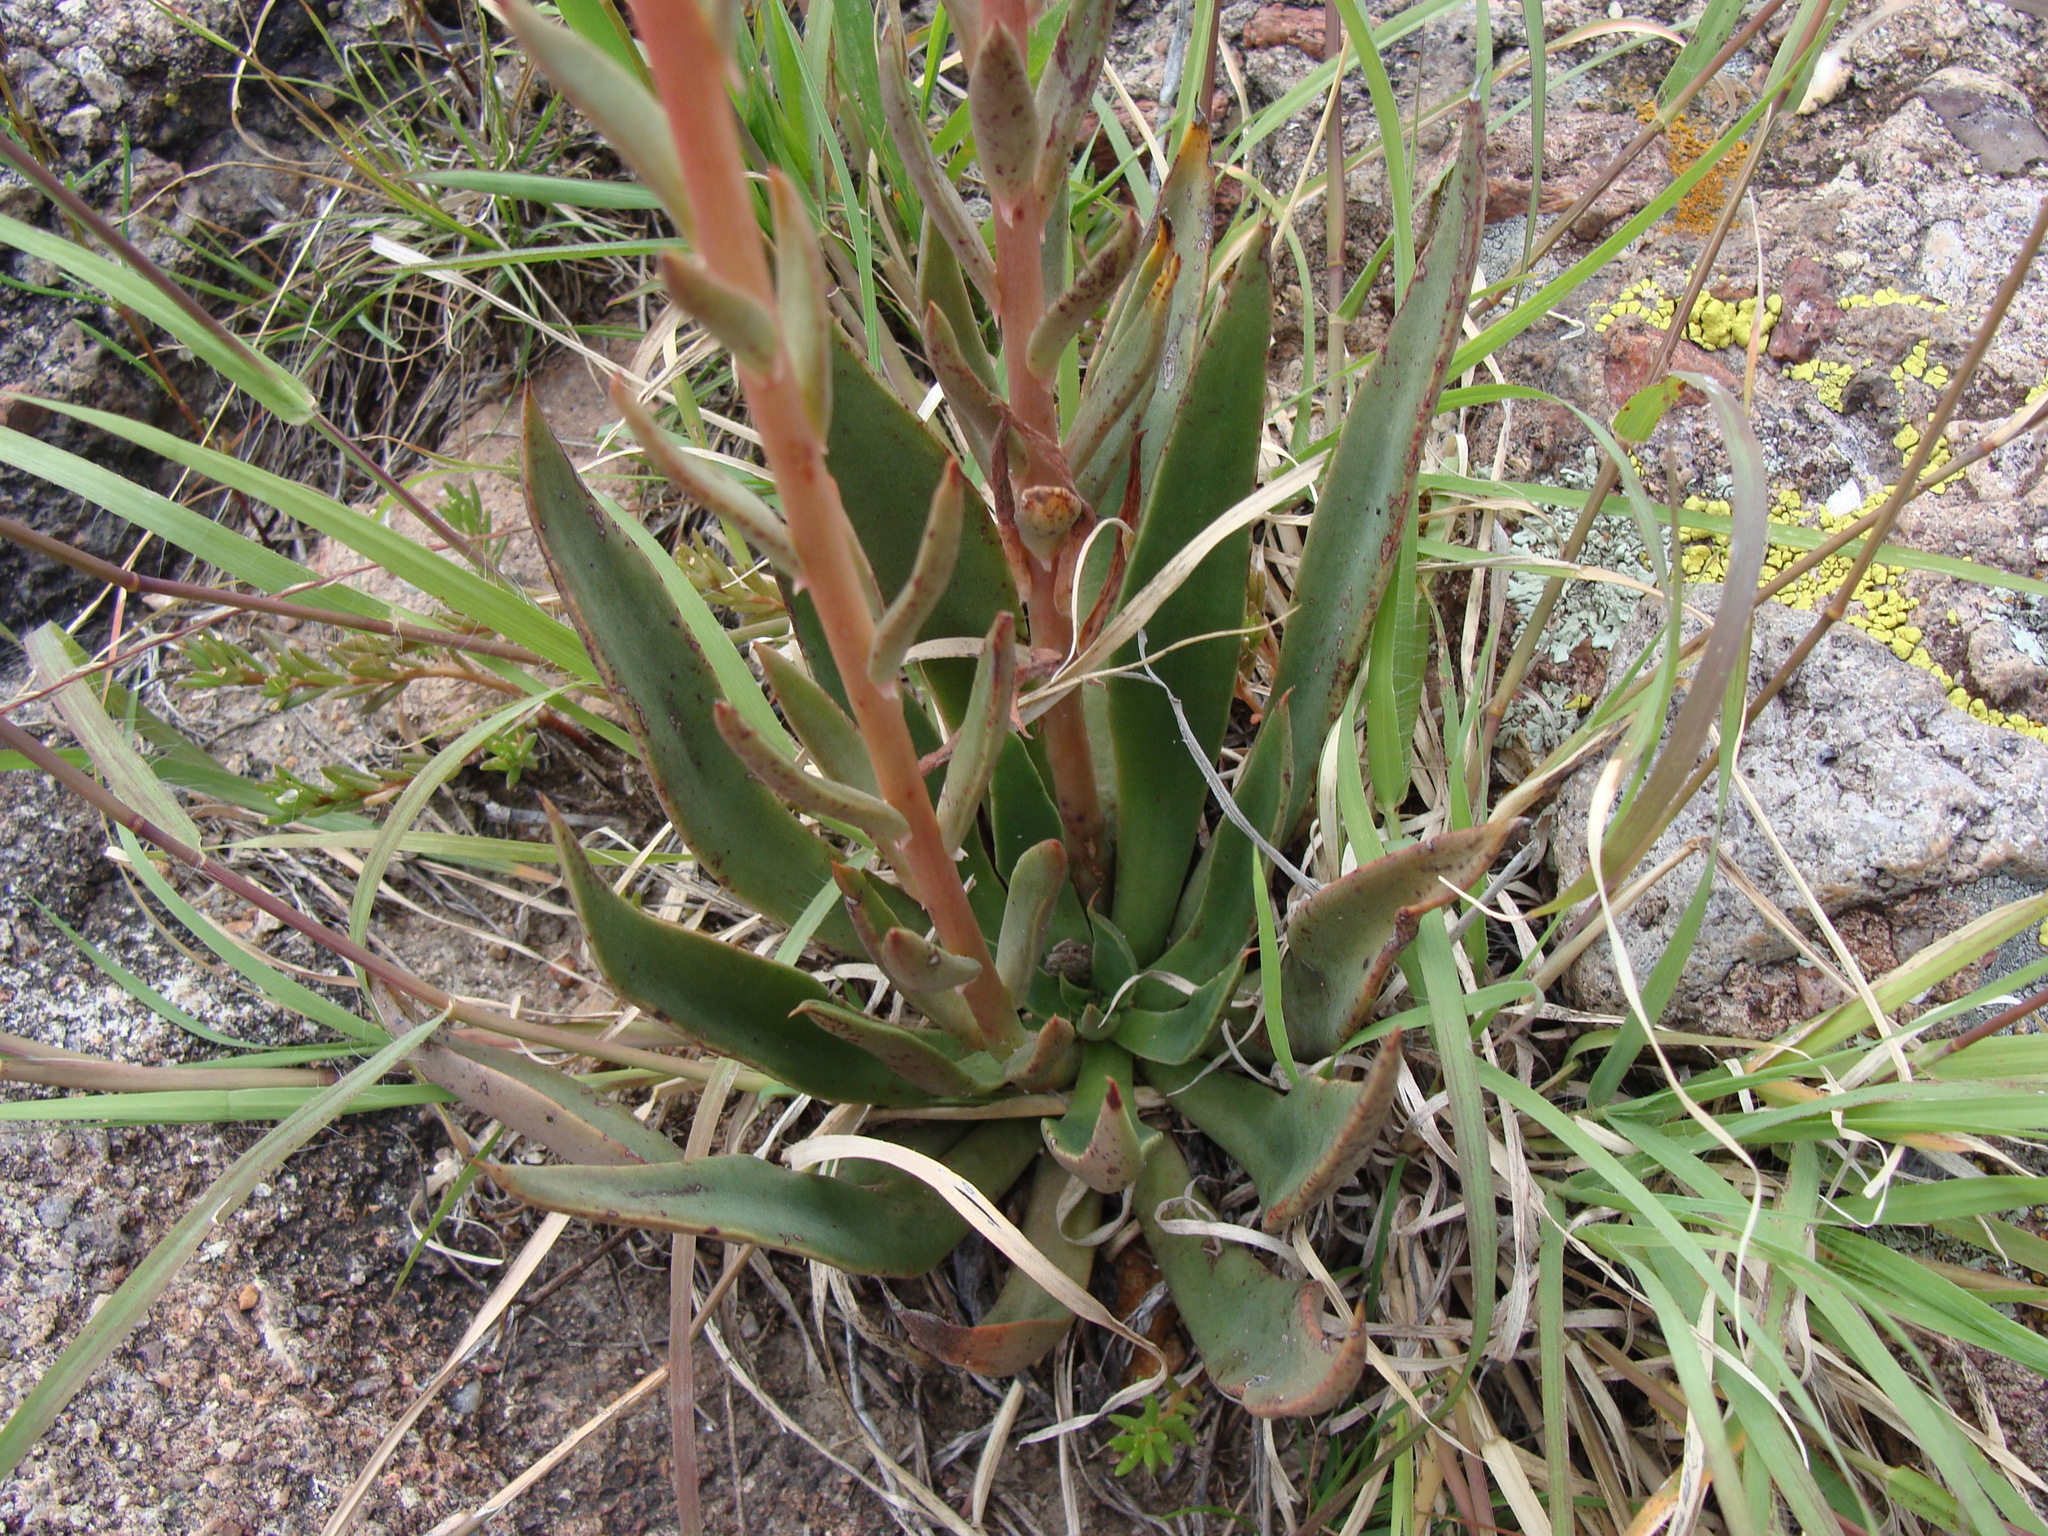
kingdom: Plantae
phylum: Tracheophyta
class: Magnoliopsida
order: Saxifragales
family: Crassulaceae
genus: Echeveria
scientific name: Echeveria mucronata
